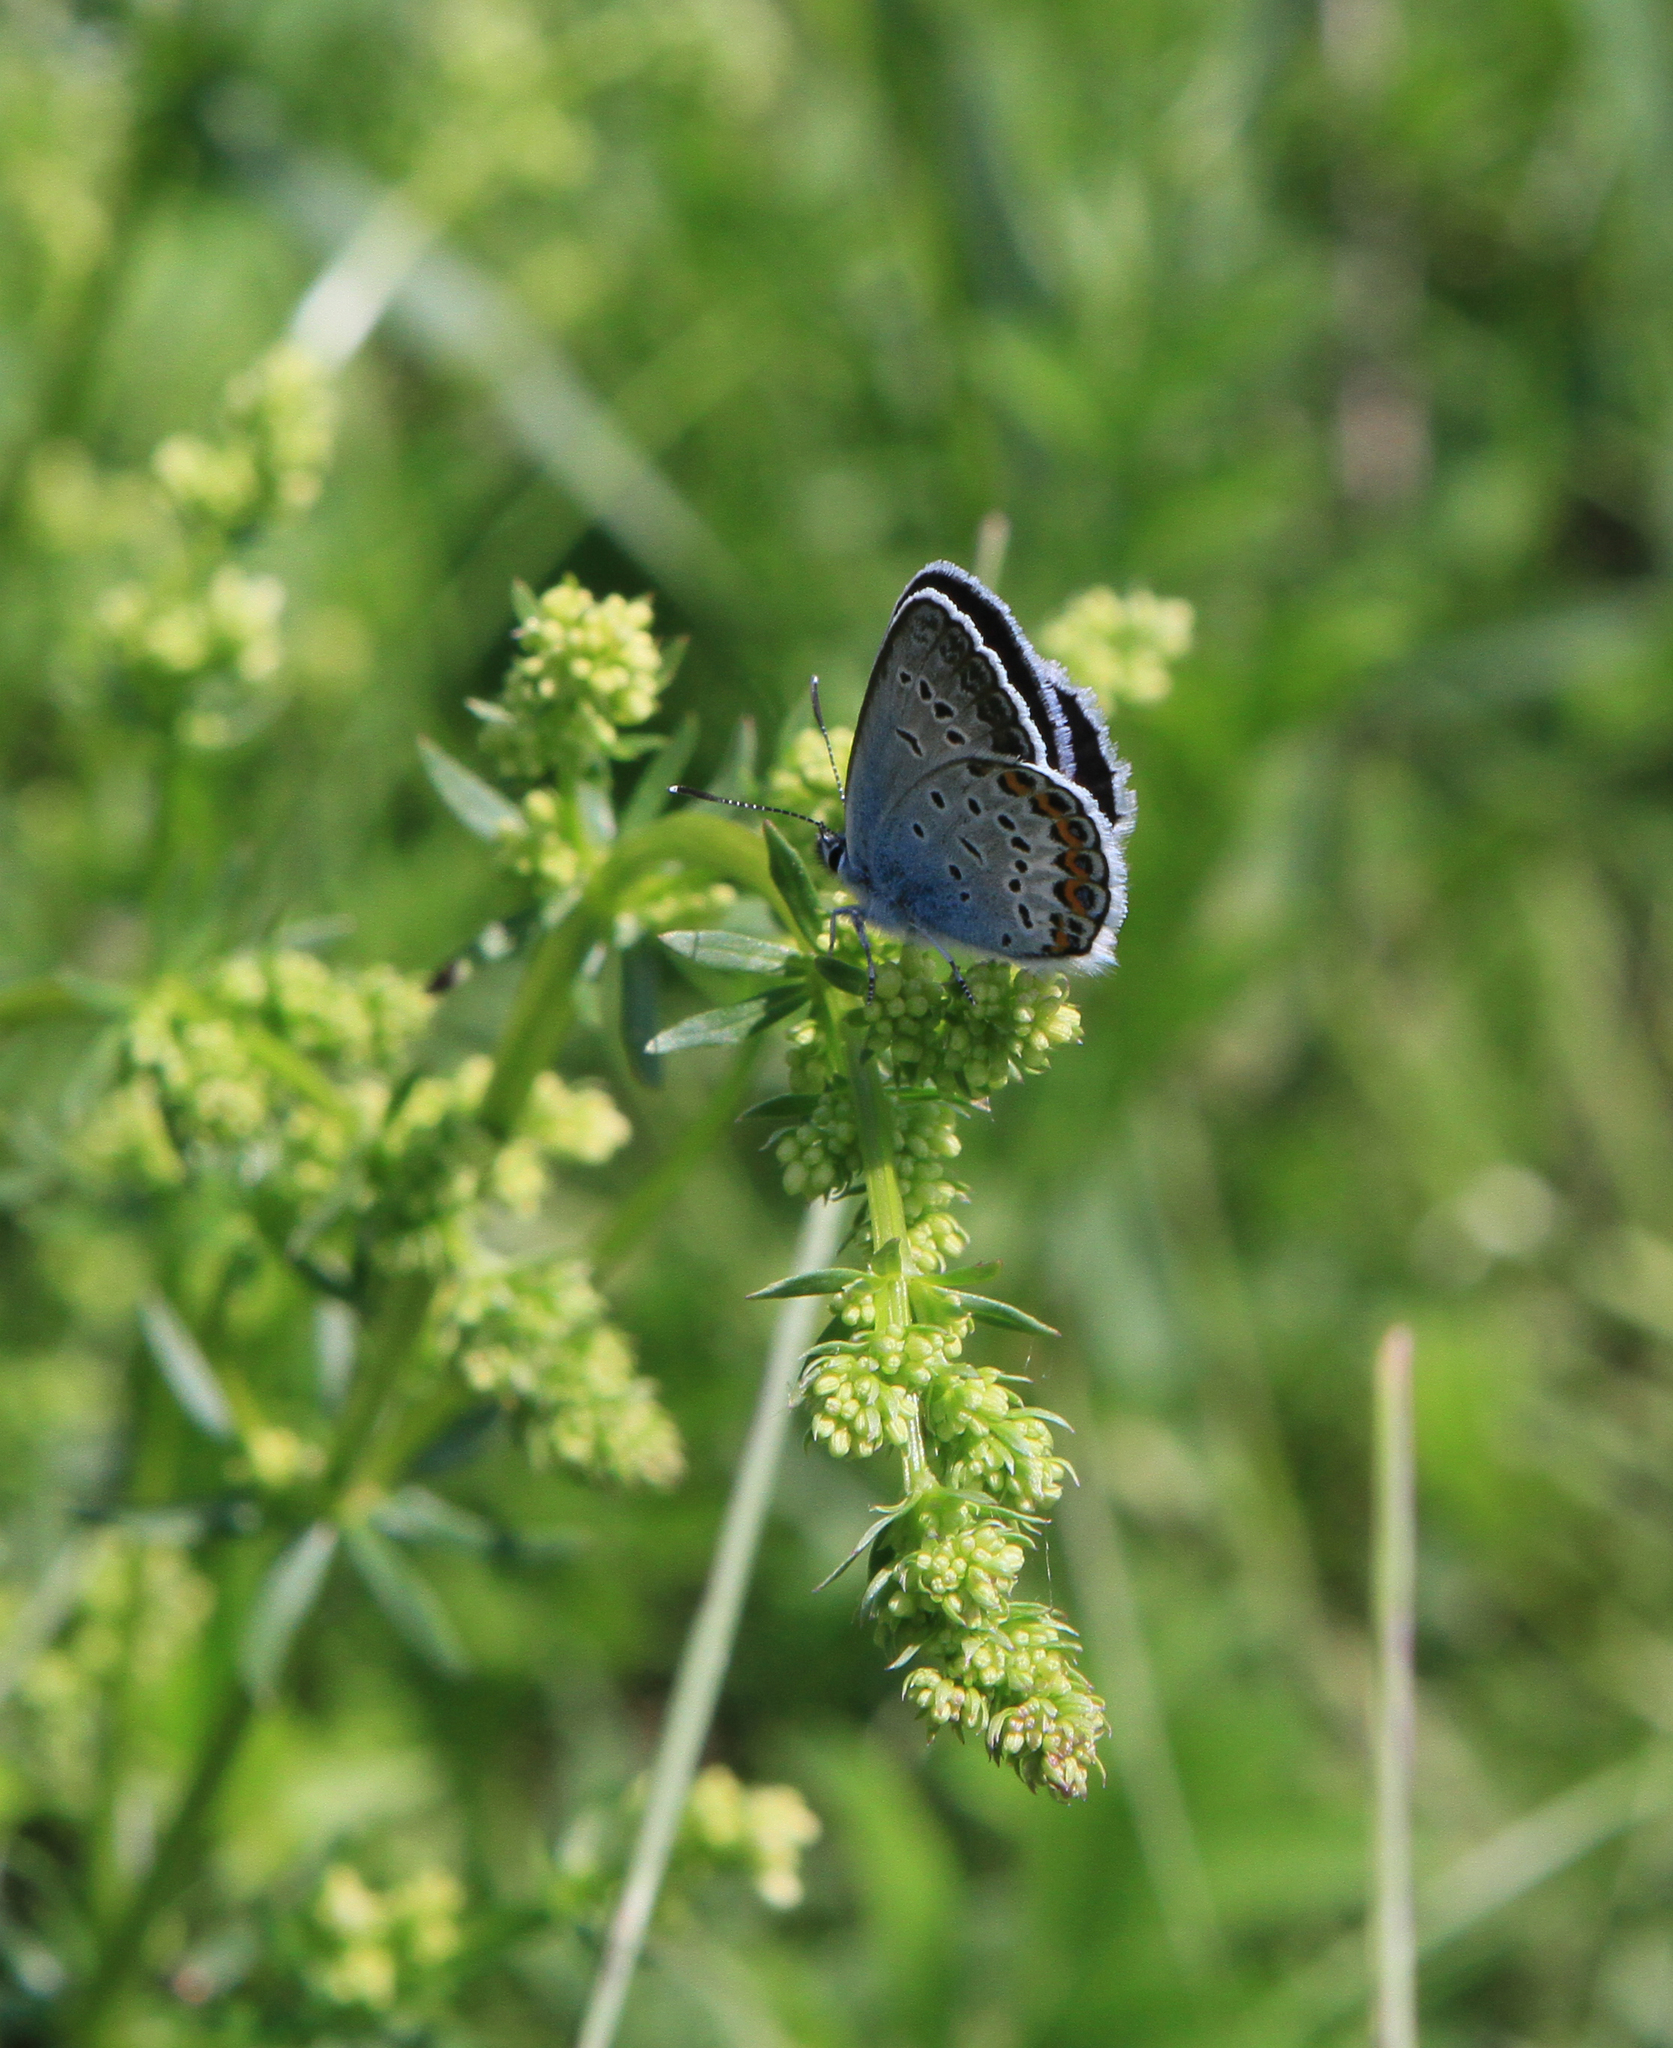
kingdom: Animalia
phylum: Arthropoda
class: Insecta
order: Lepidoptera
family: Lycaenidae
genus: Plebejus
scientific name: Plebejus argus
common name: Silver-studded blue
